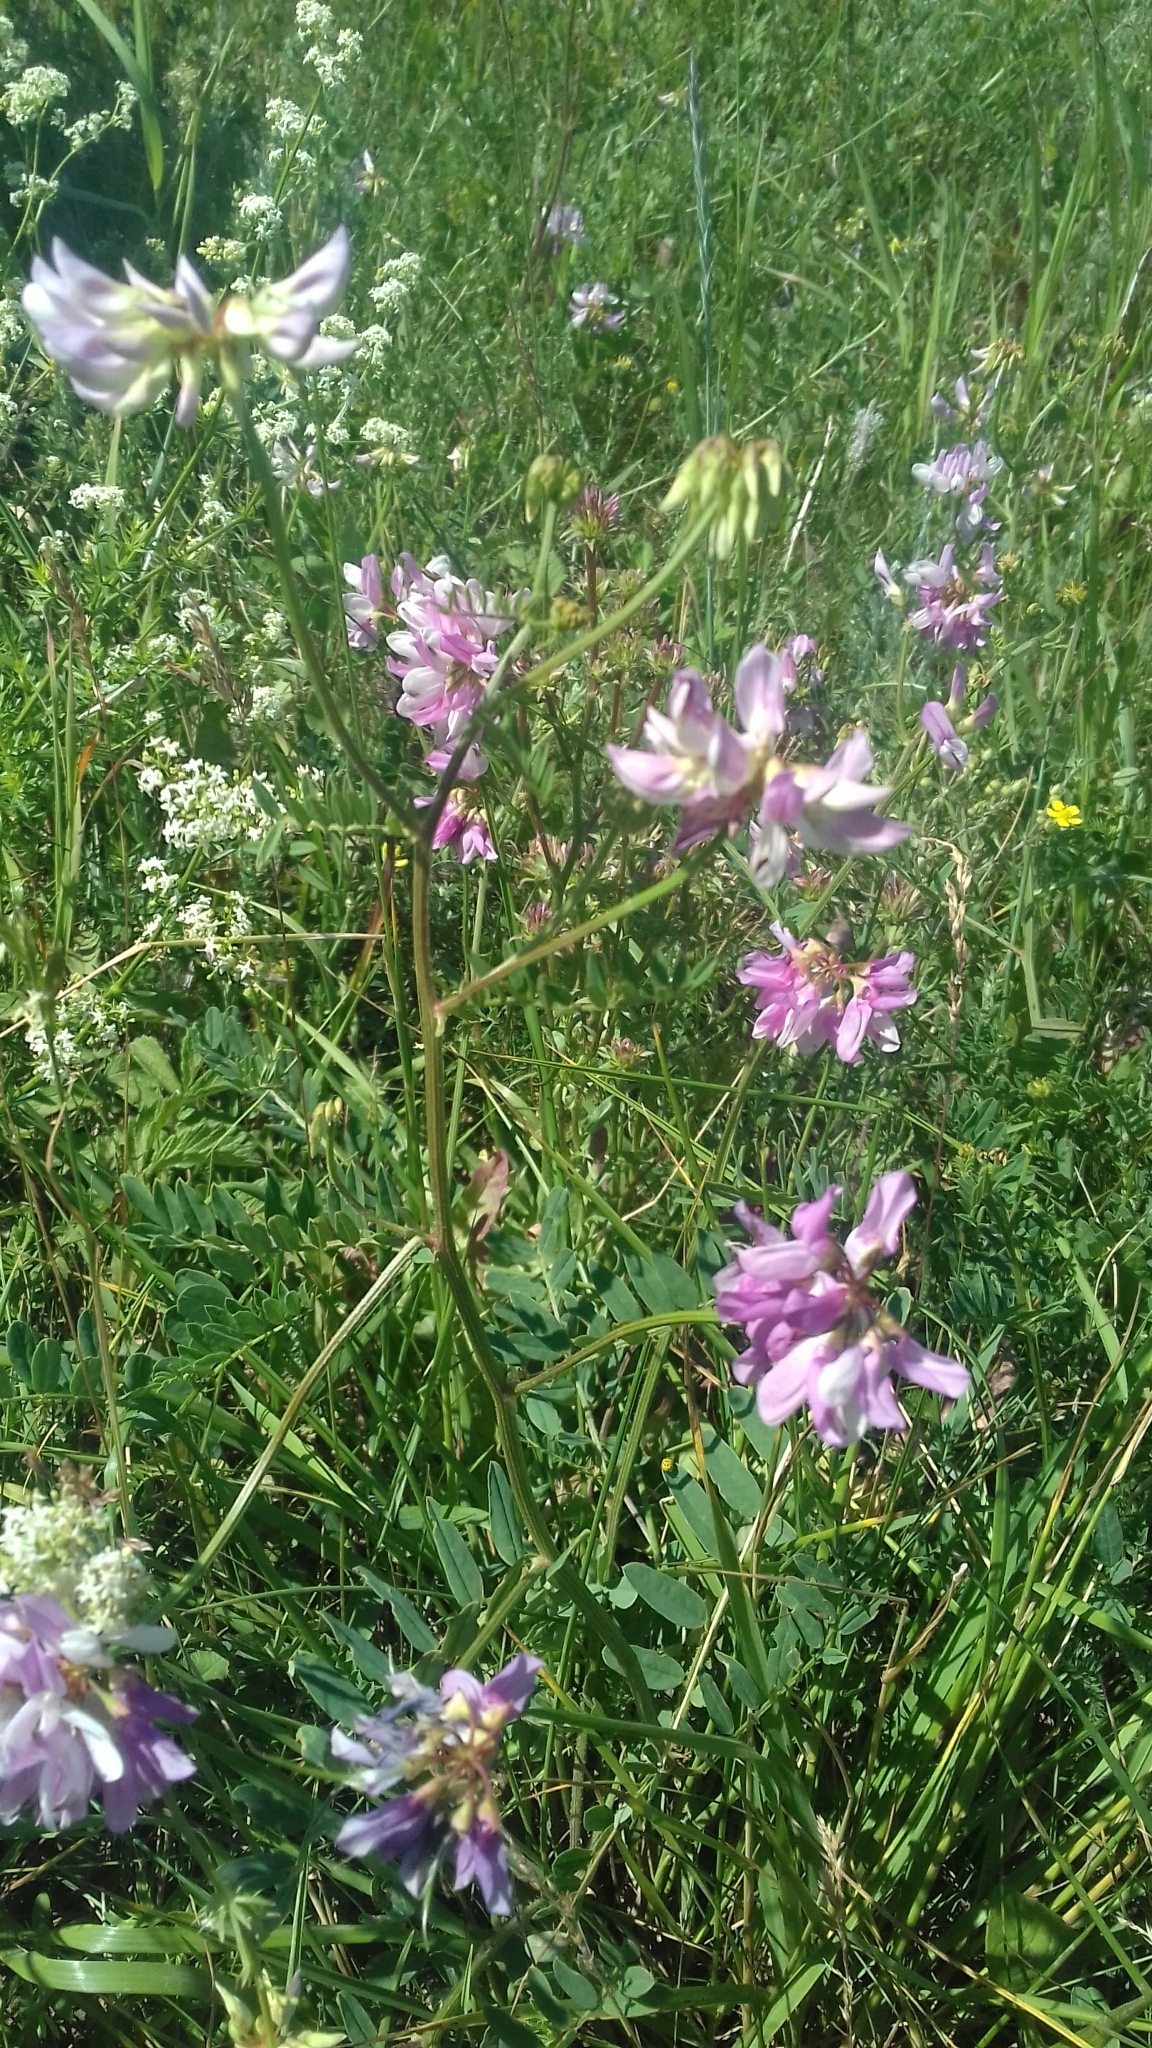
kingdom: Plantae
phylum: Tracheophyta
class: Magnoliopsida
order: Fabales
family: Fabaceae
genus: Coronilla
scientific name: Coronilla varia
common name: Crownvetch
